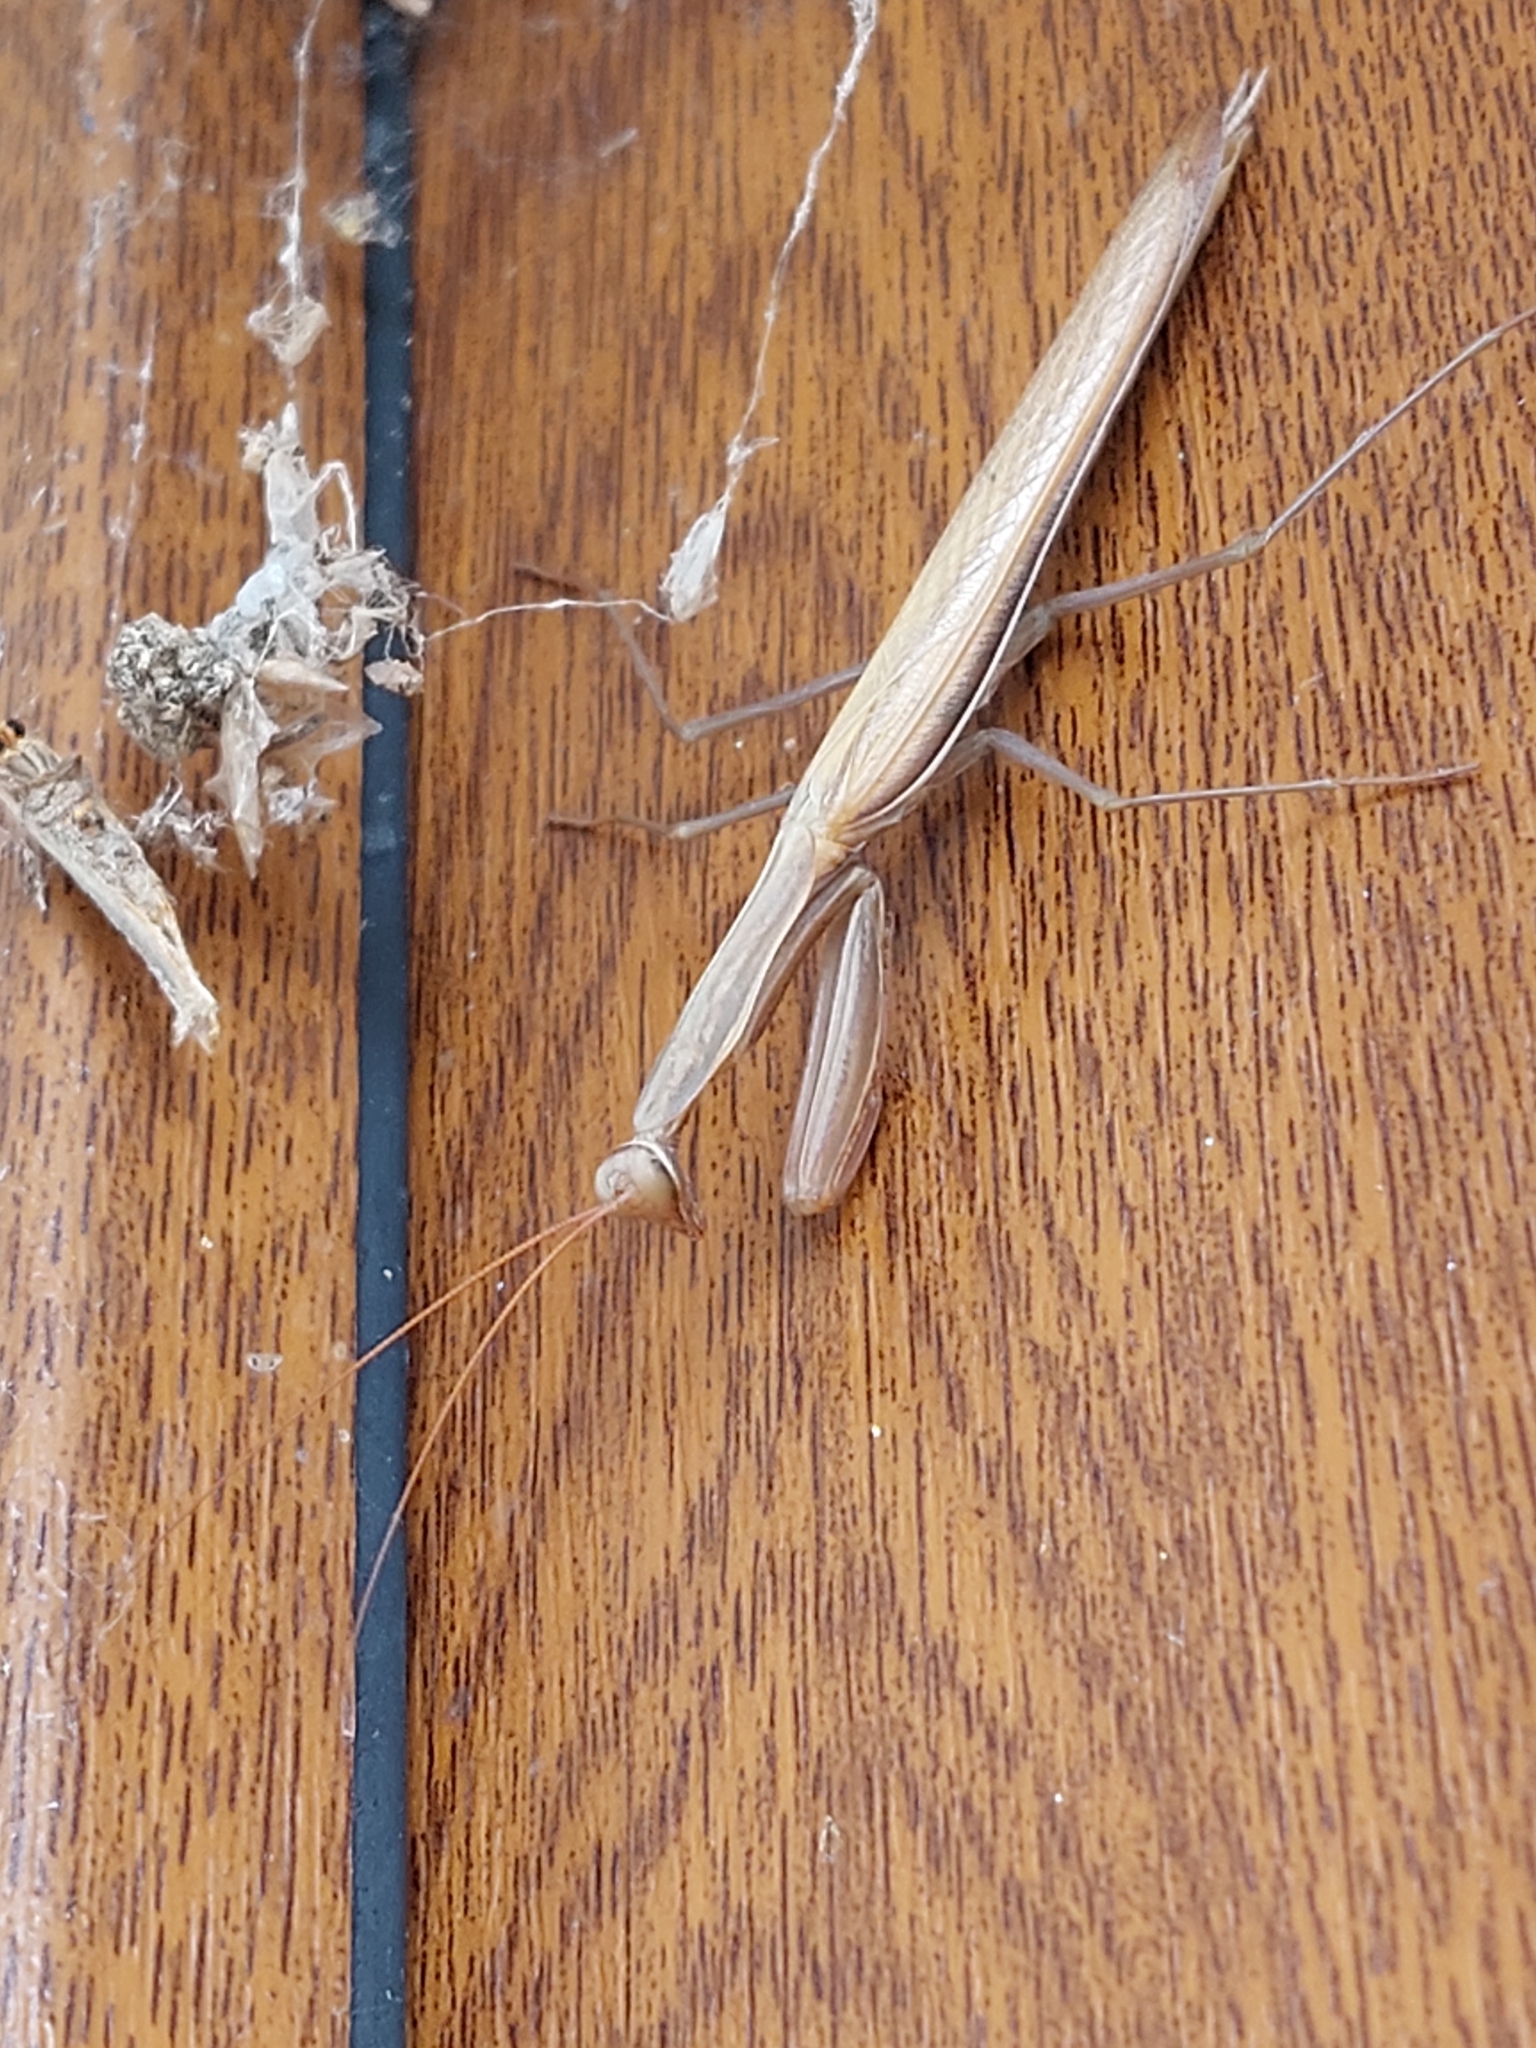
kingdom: Animalia
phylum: Arthropoda
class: Insecta
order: Mantodea
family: Mantidae
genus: Mantis
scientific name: Mantis religiosa
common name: Praying mantis
